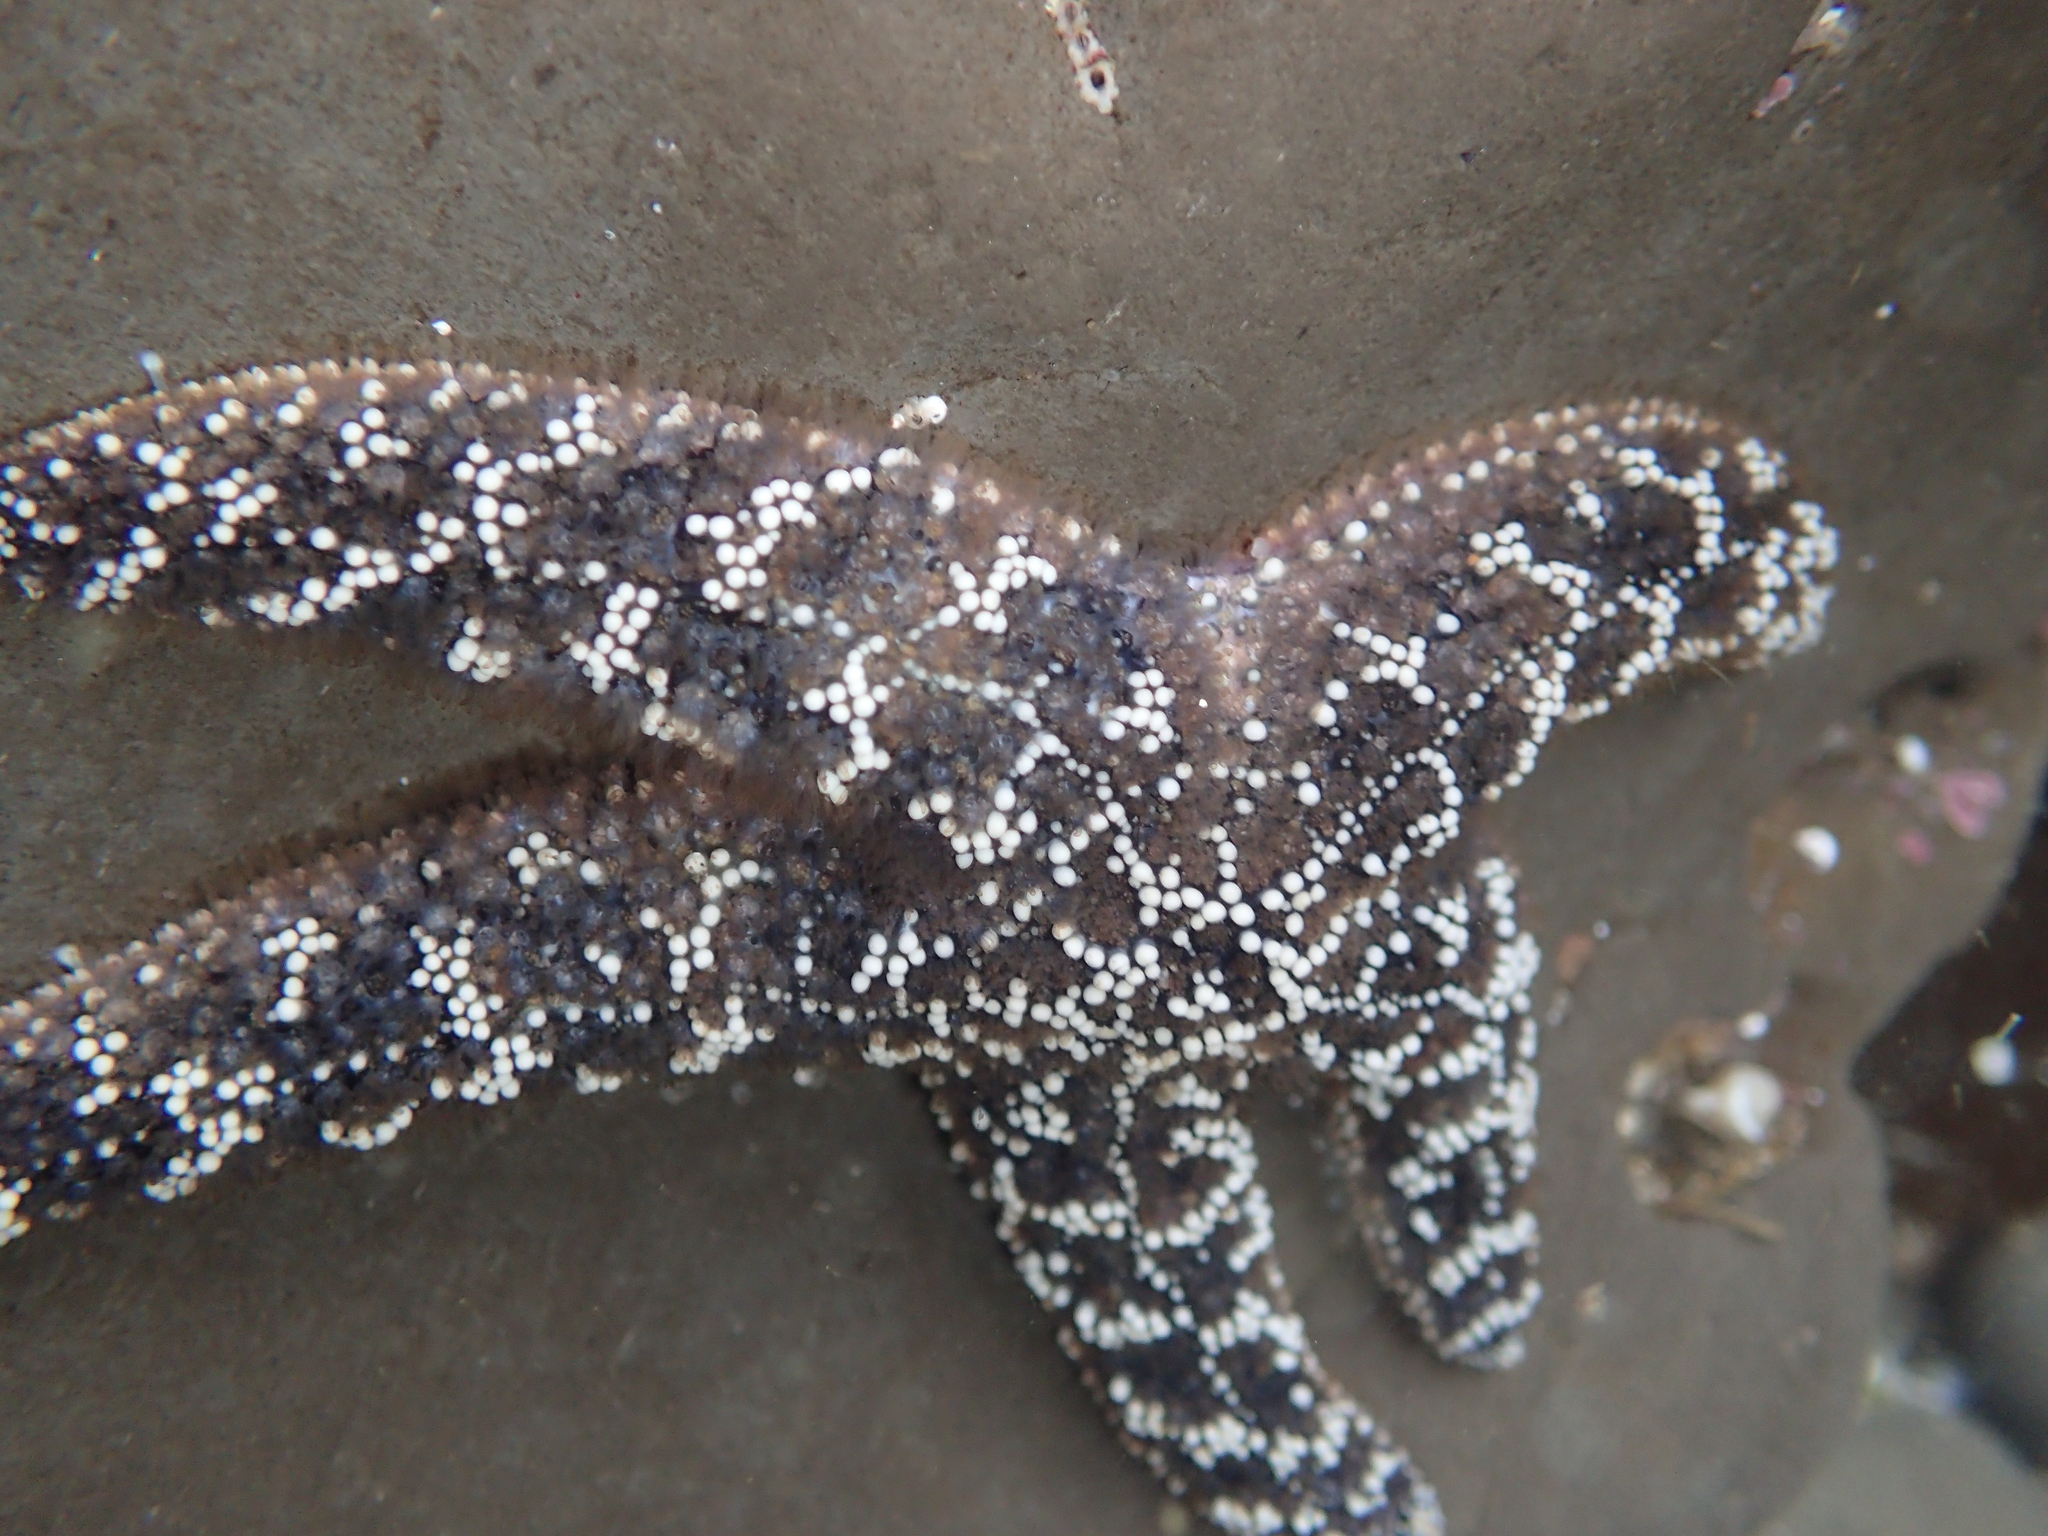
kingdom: Animalia
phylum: Echinodermata
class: Asteroidea
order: Forcipulatida
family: Asteriidae
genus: Pisaster
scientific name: Pisaster ochraceus
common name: Ochre stars
